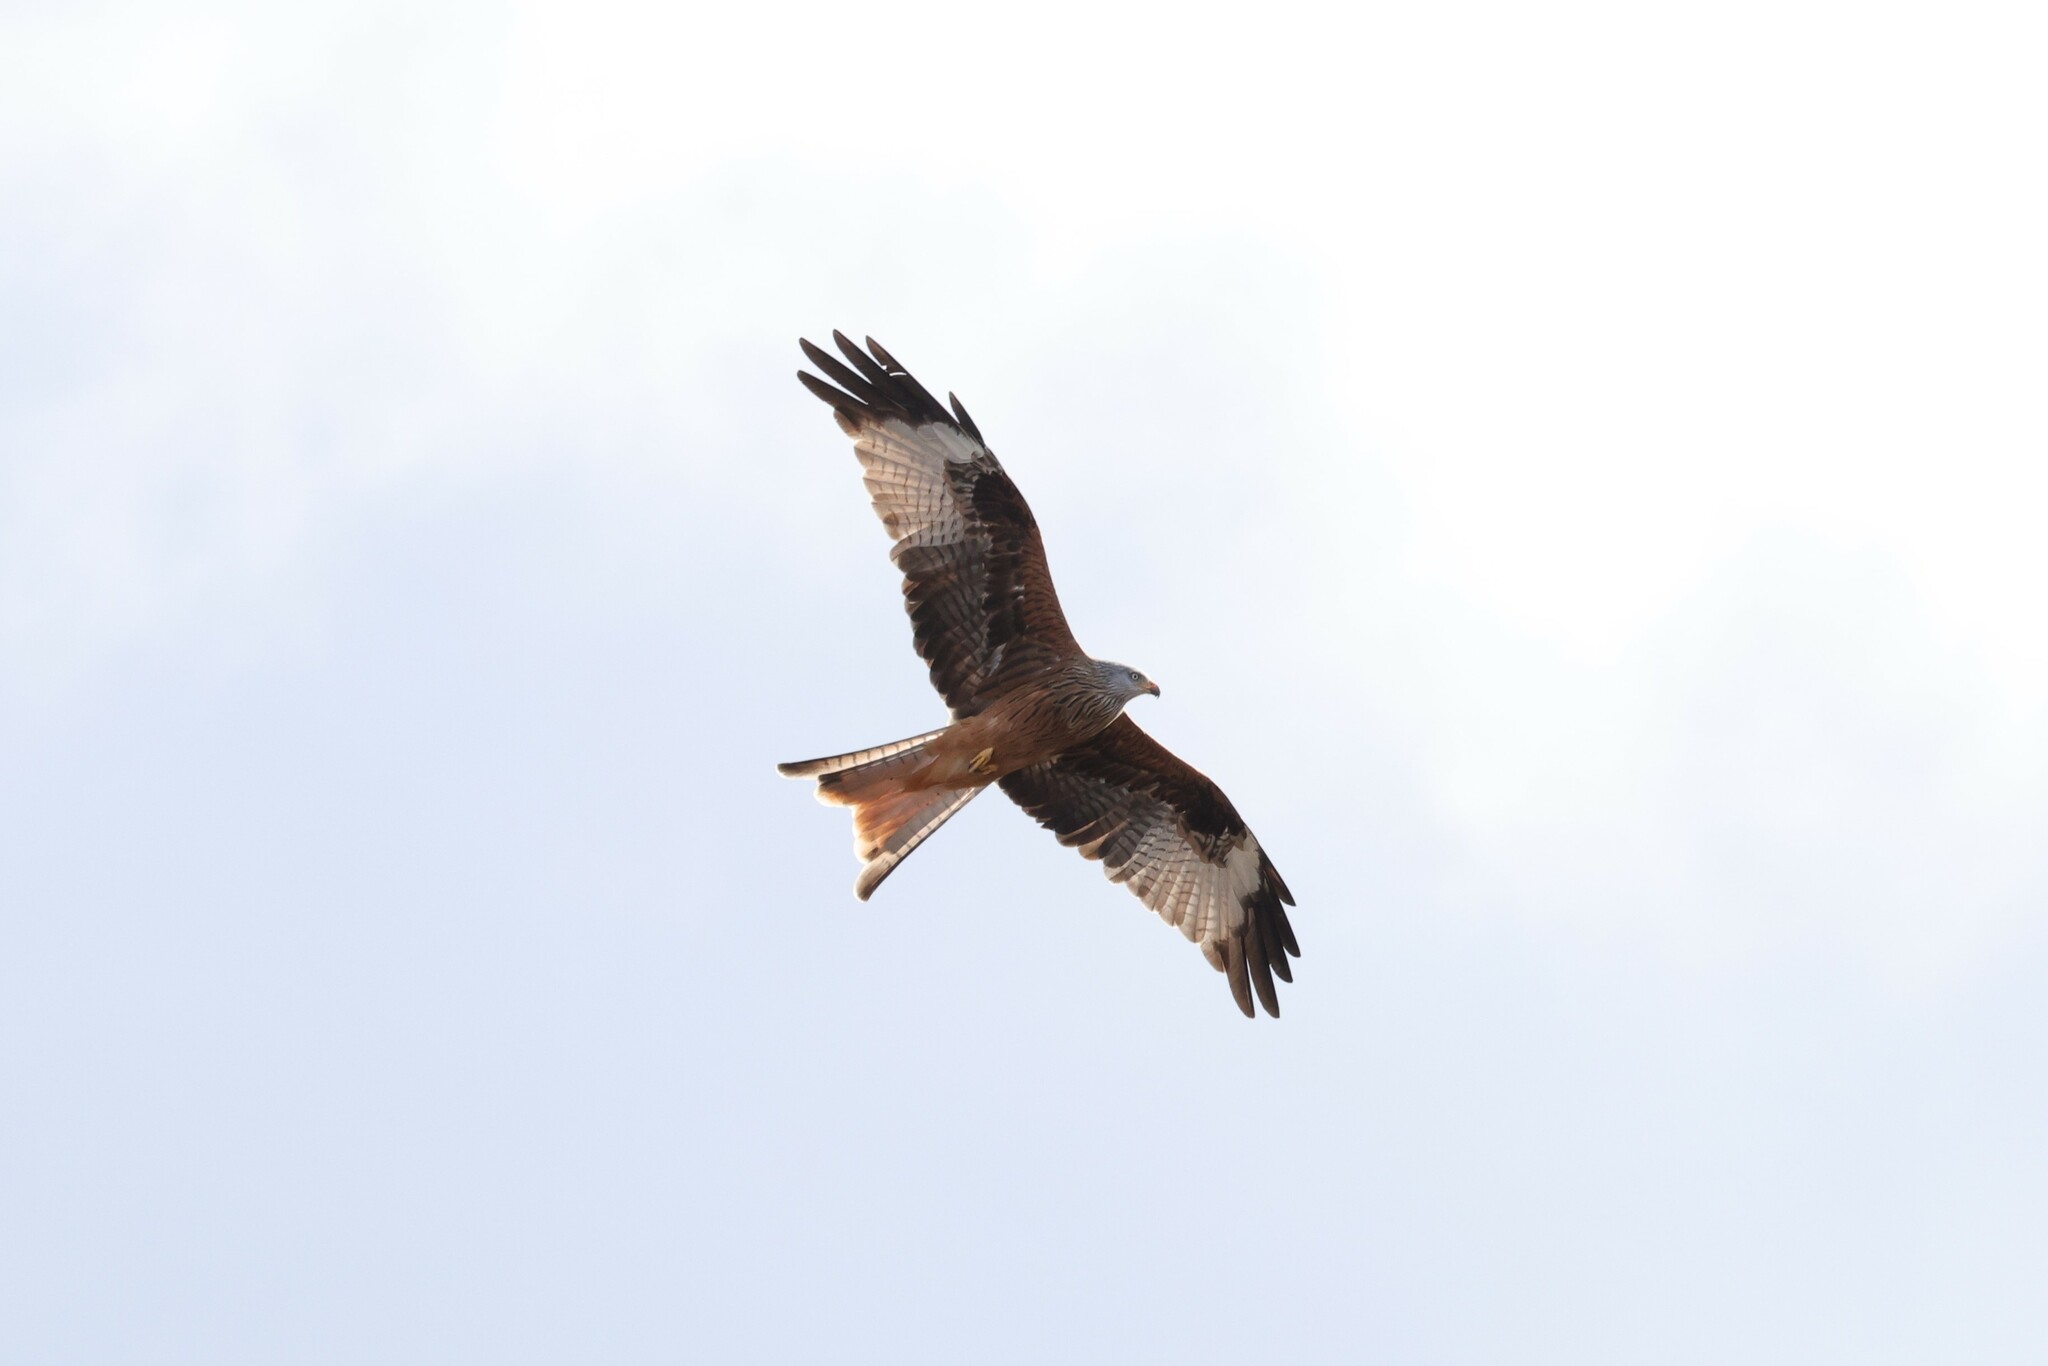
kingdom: Animalia
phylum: Chordata
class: Aves
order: Accipitriformes
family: Accipitridae
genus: Milvus
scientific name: Milvus milvus
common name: Red kite
